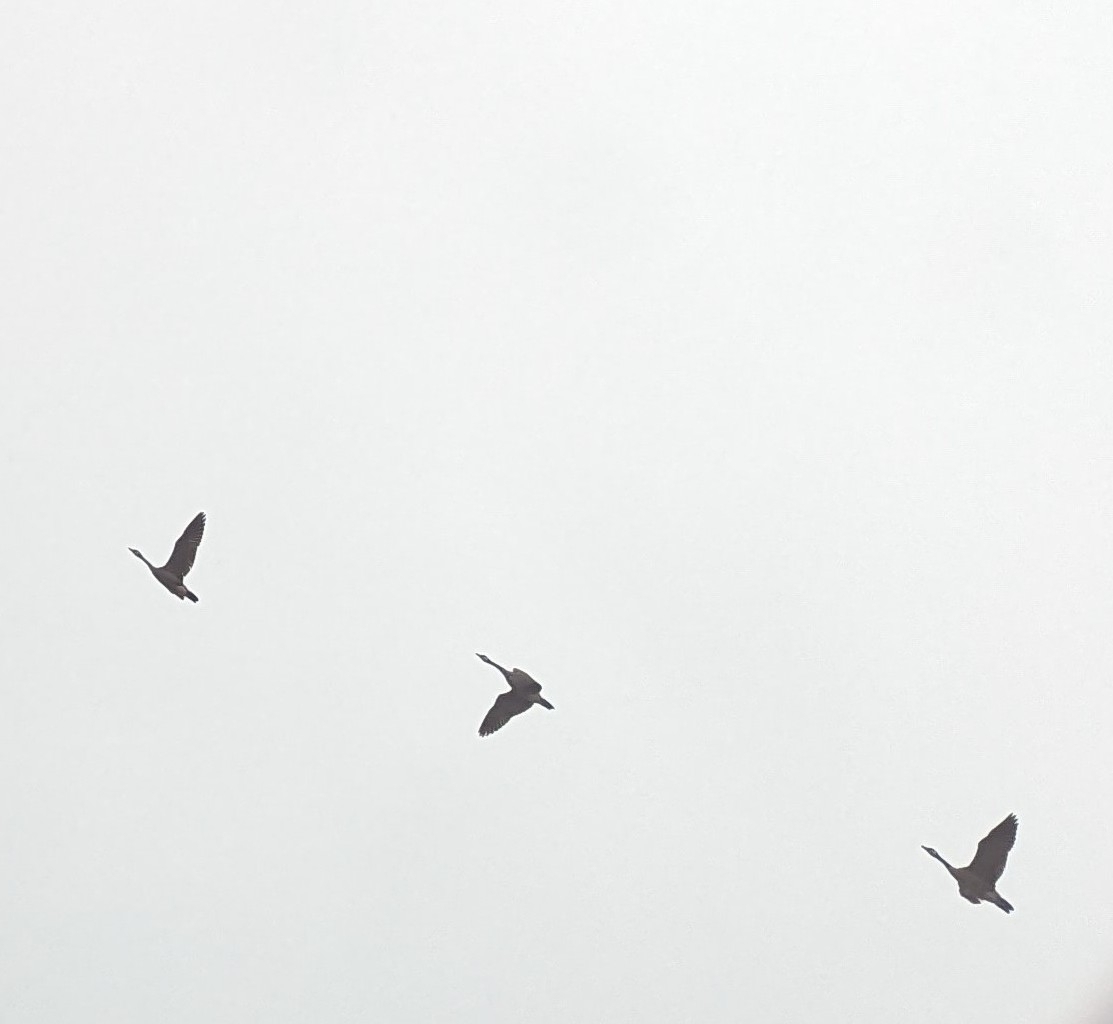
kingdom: Animalia
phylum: Chordata
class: Aves
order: Anseriformes
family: Anatidae
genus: Branta
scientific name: Branta canadensis
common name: Canada goose
